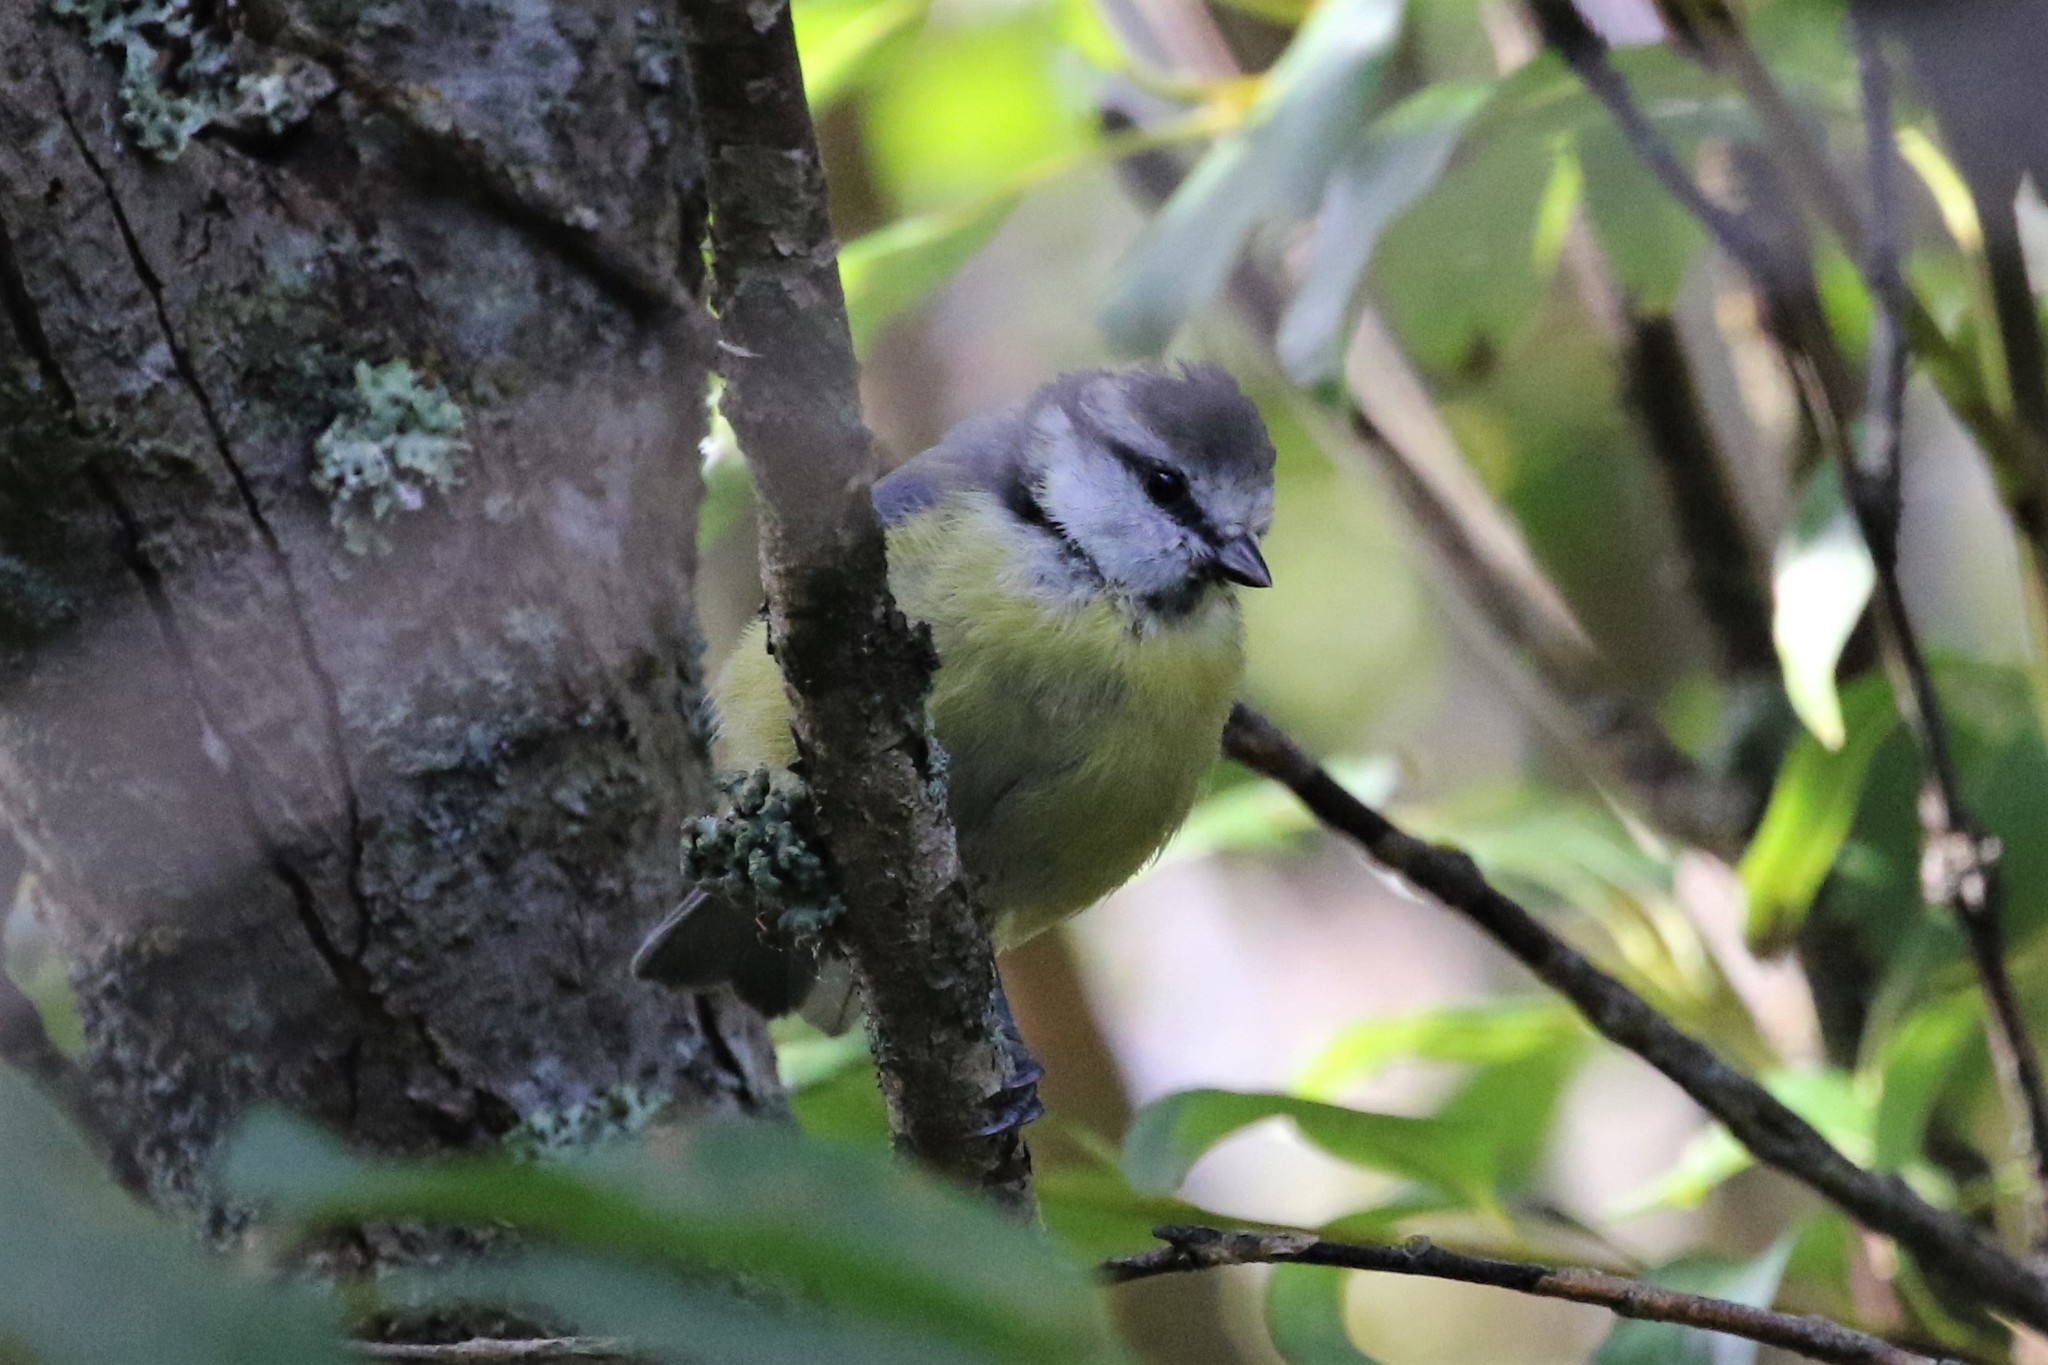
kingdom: Animalia
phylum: Chordata
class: Aves
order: Passeriformes
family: Paridae
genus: Cyanistes
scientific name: Cyanistes caeruleus
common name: Eurasian blue tit
